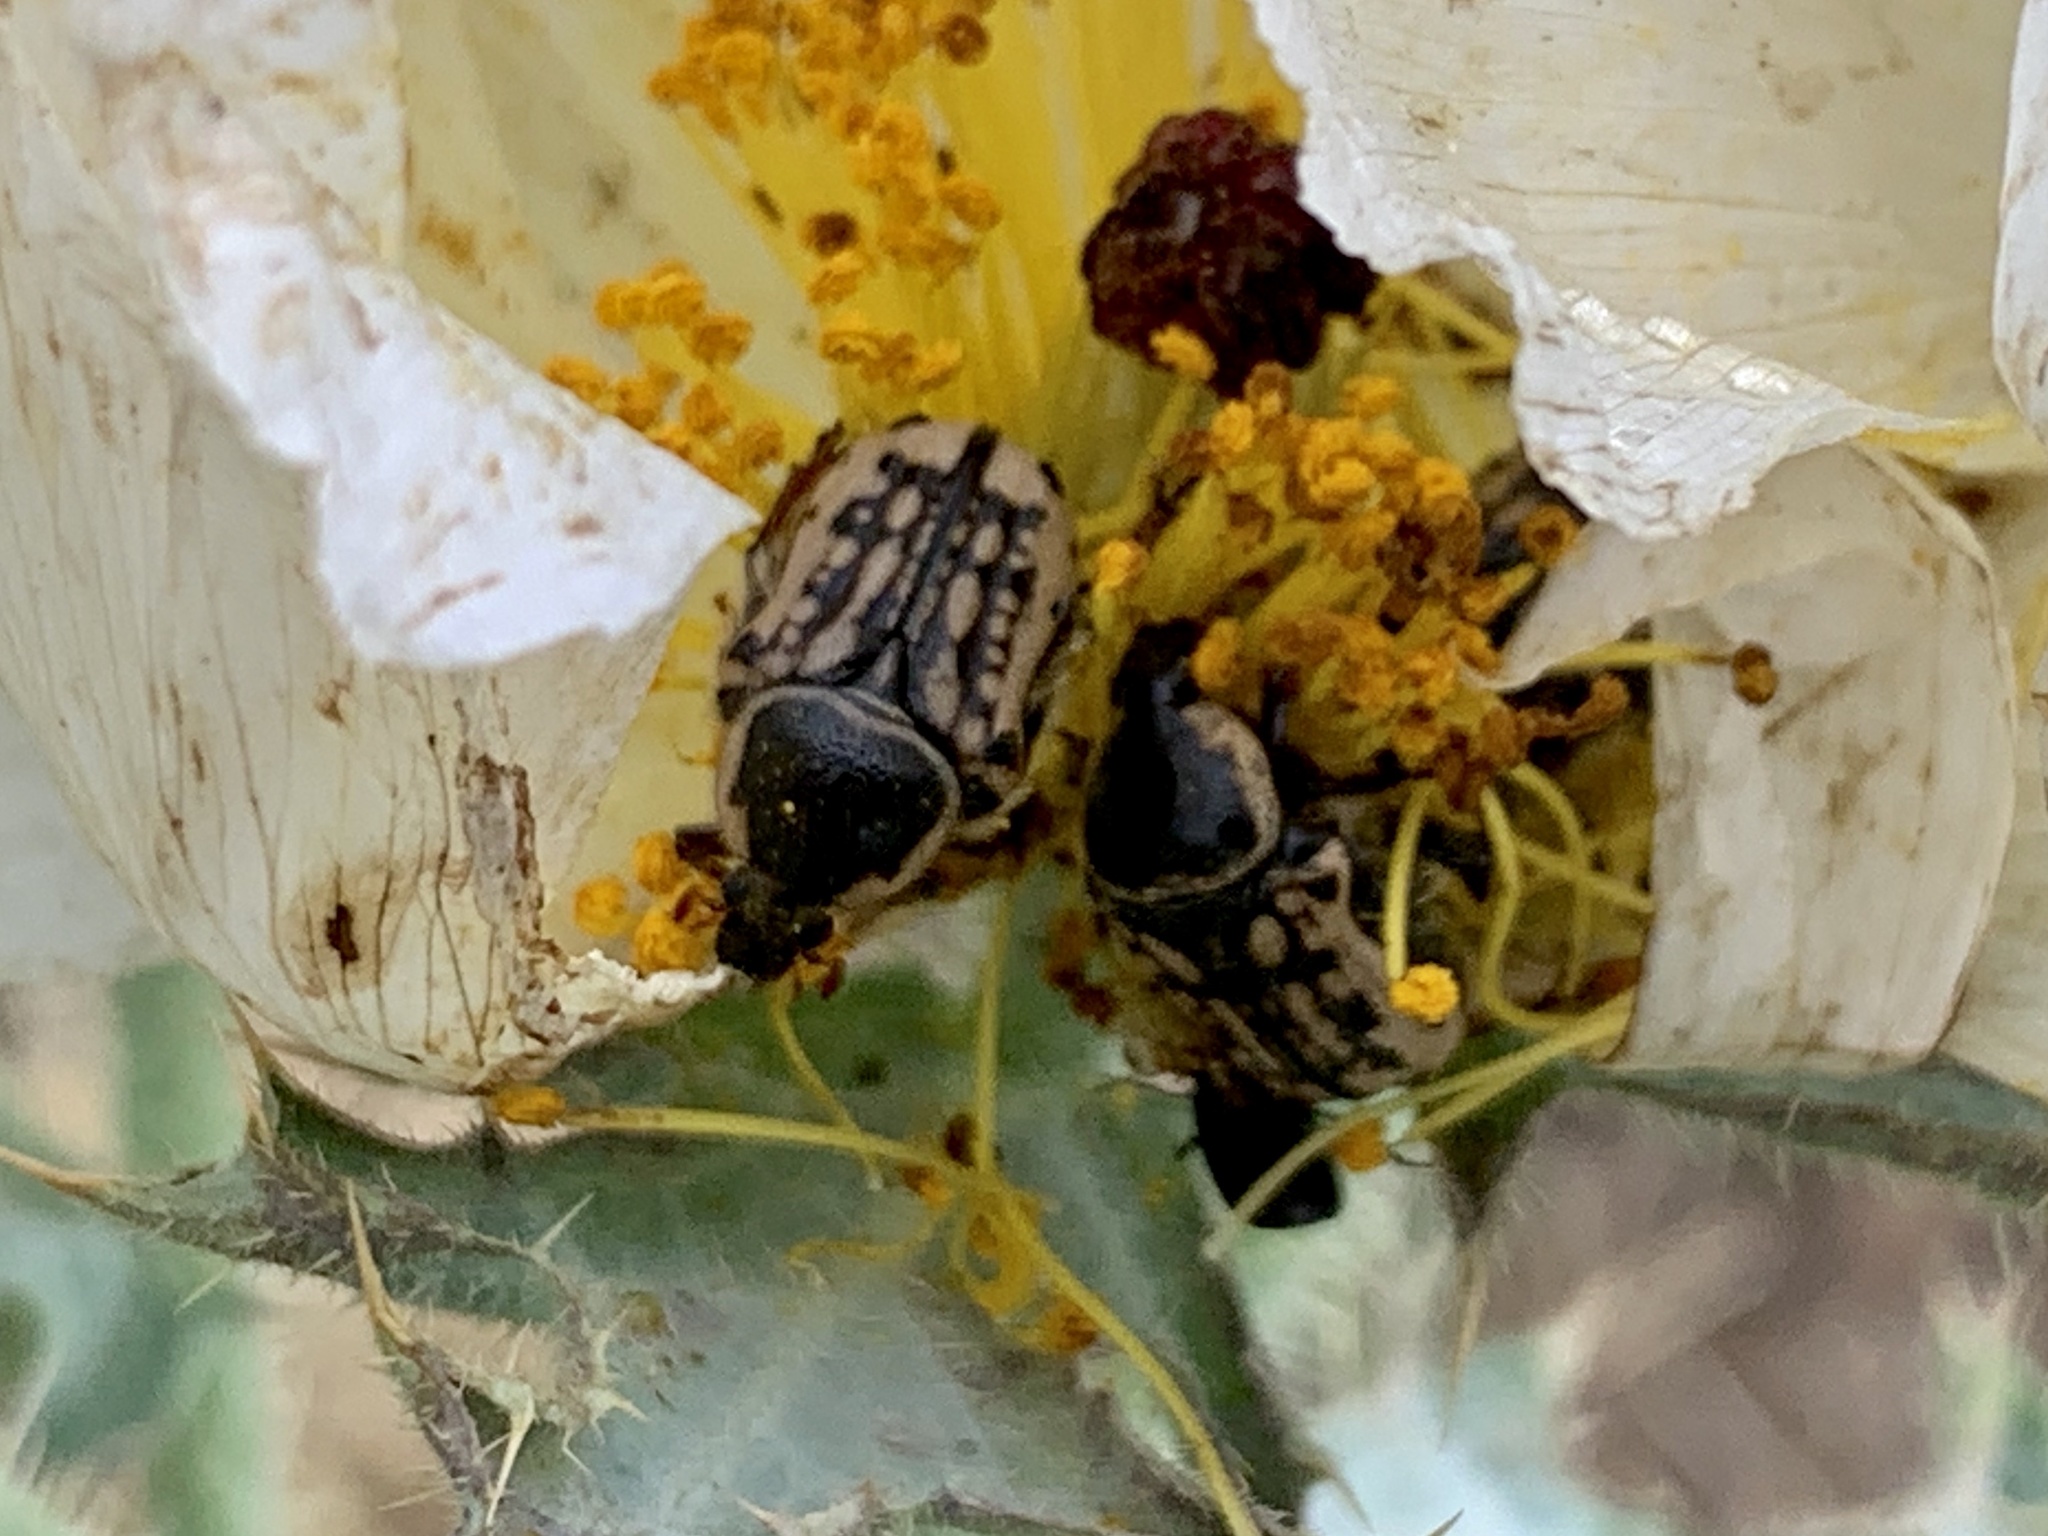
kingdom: Animalia
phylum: Arthropoda
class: Insecta
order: Coleoptera
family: Scarabaeidae
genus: Euphoria
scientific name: Euphoria kernii
